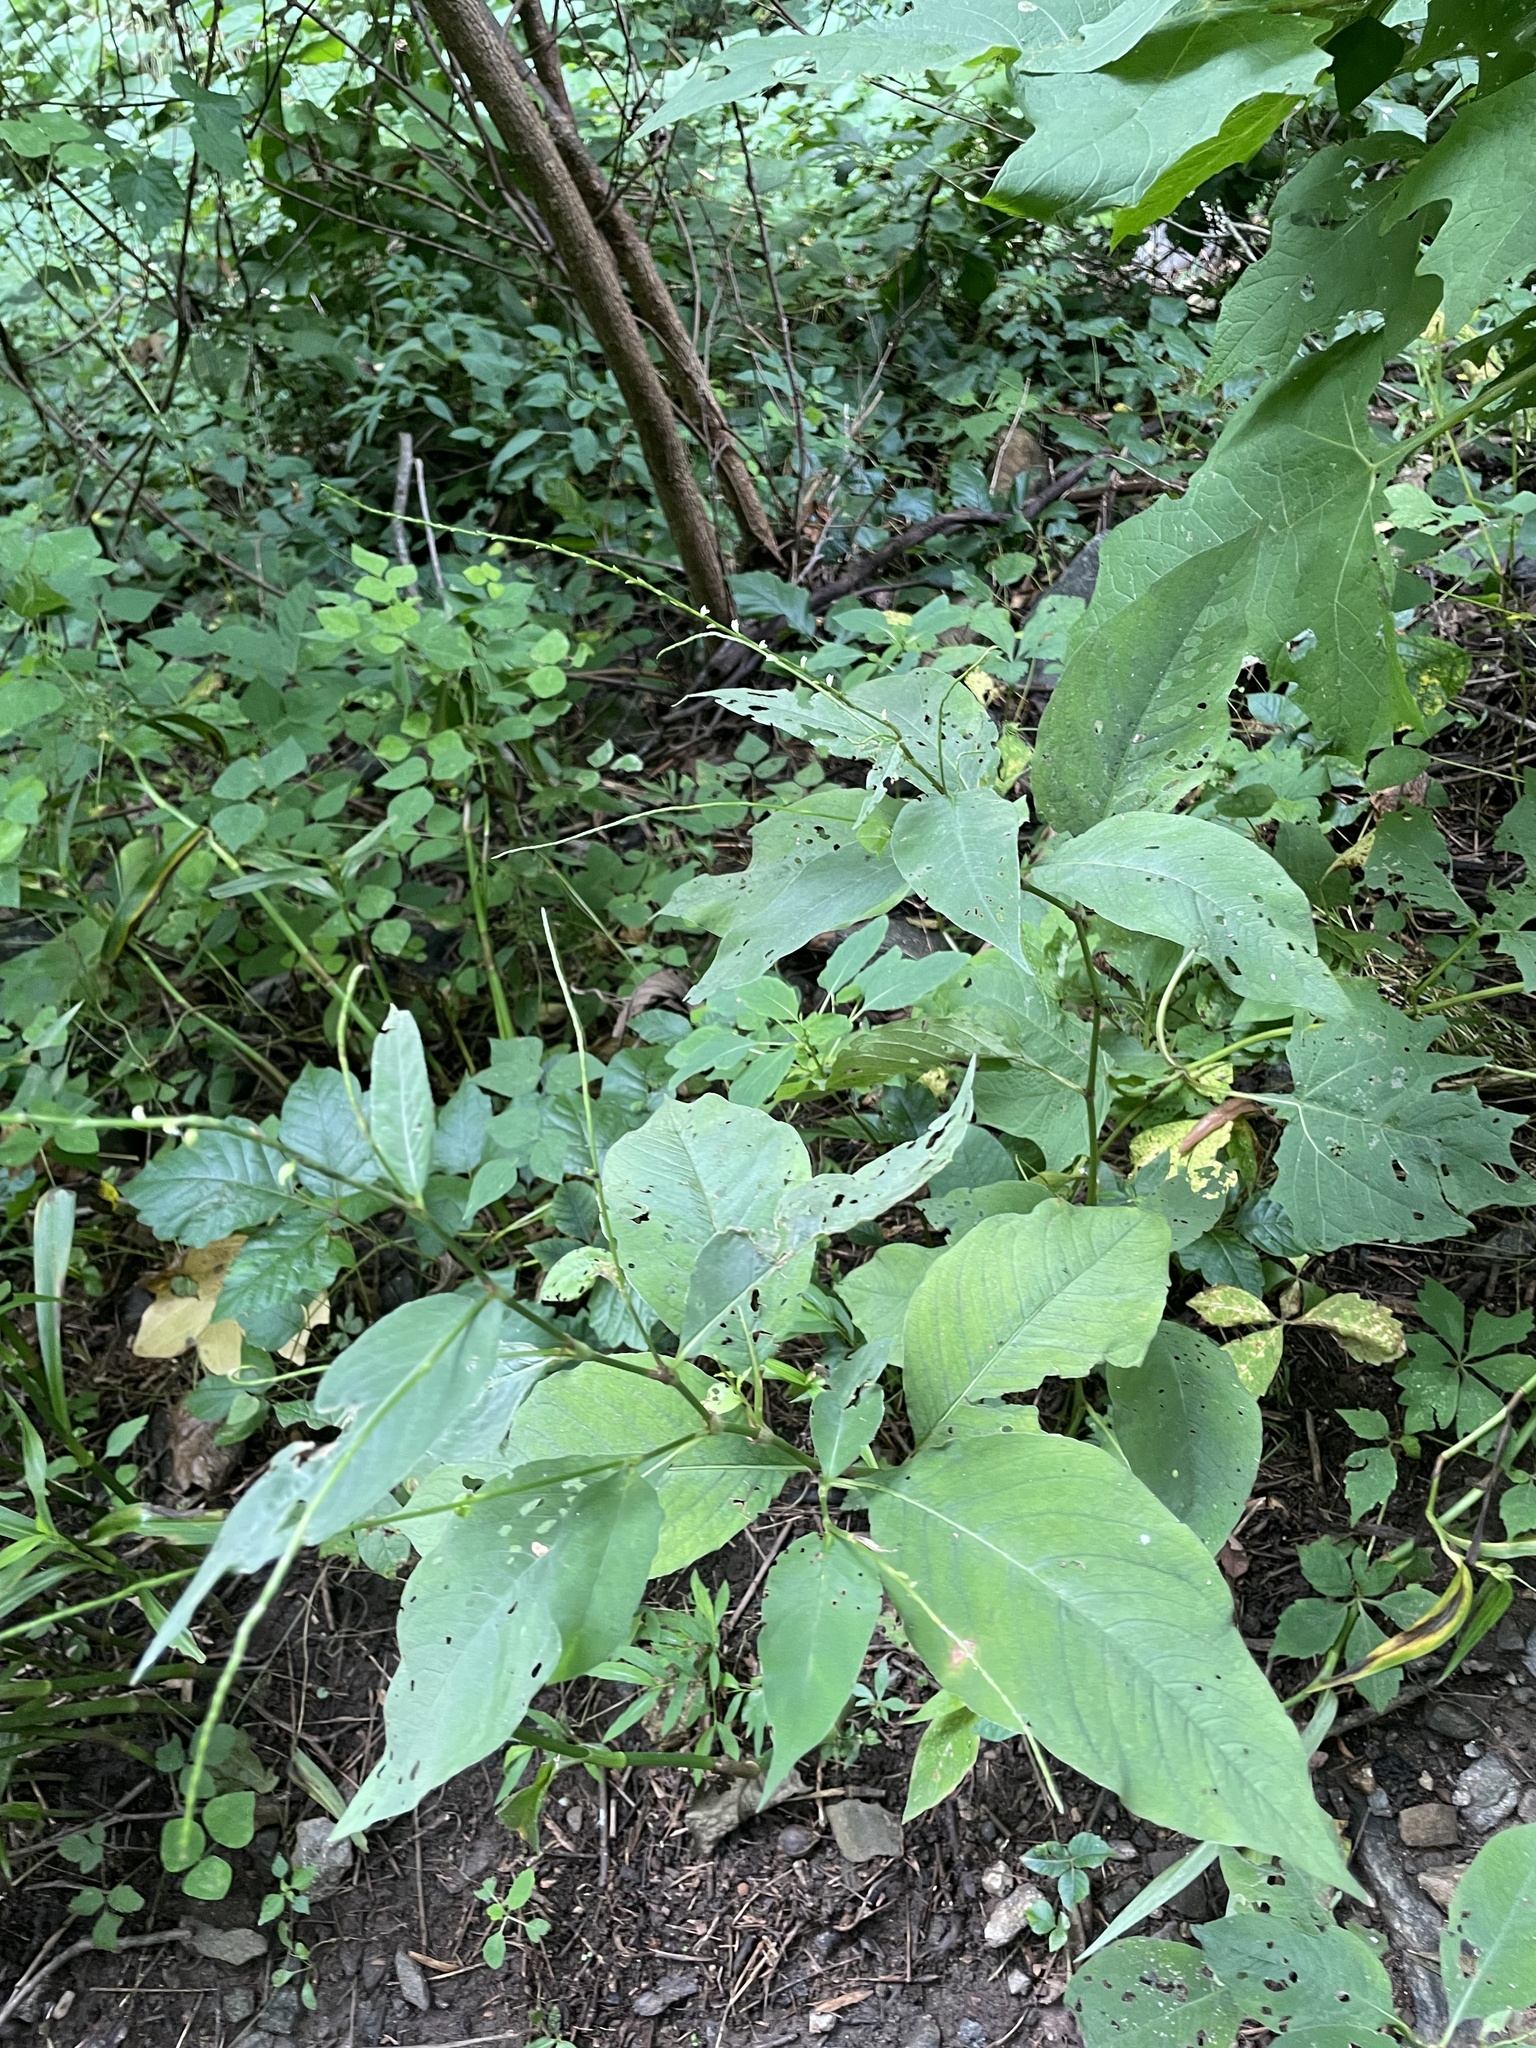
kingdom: Plantae
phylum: Tracheophyta
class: Magnoliopsida
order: Caryophyllales
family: Polygonaceae
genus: Persicaria
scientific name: Persicaria virginiana
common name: Jumpseed
